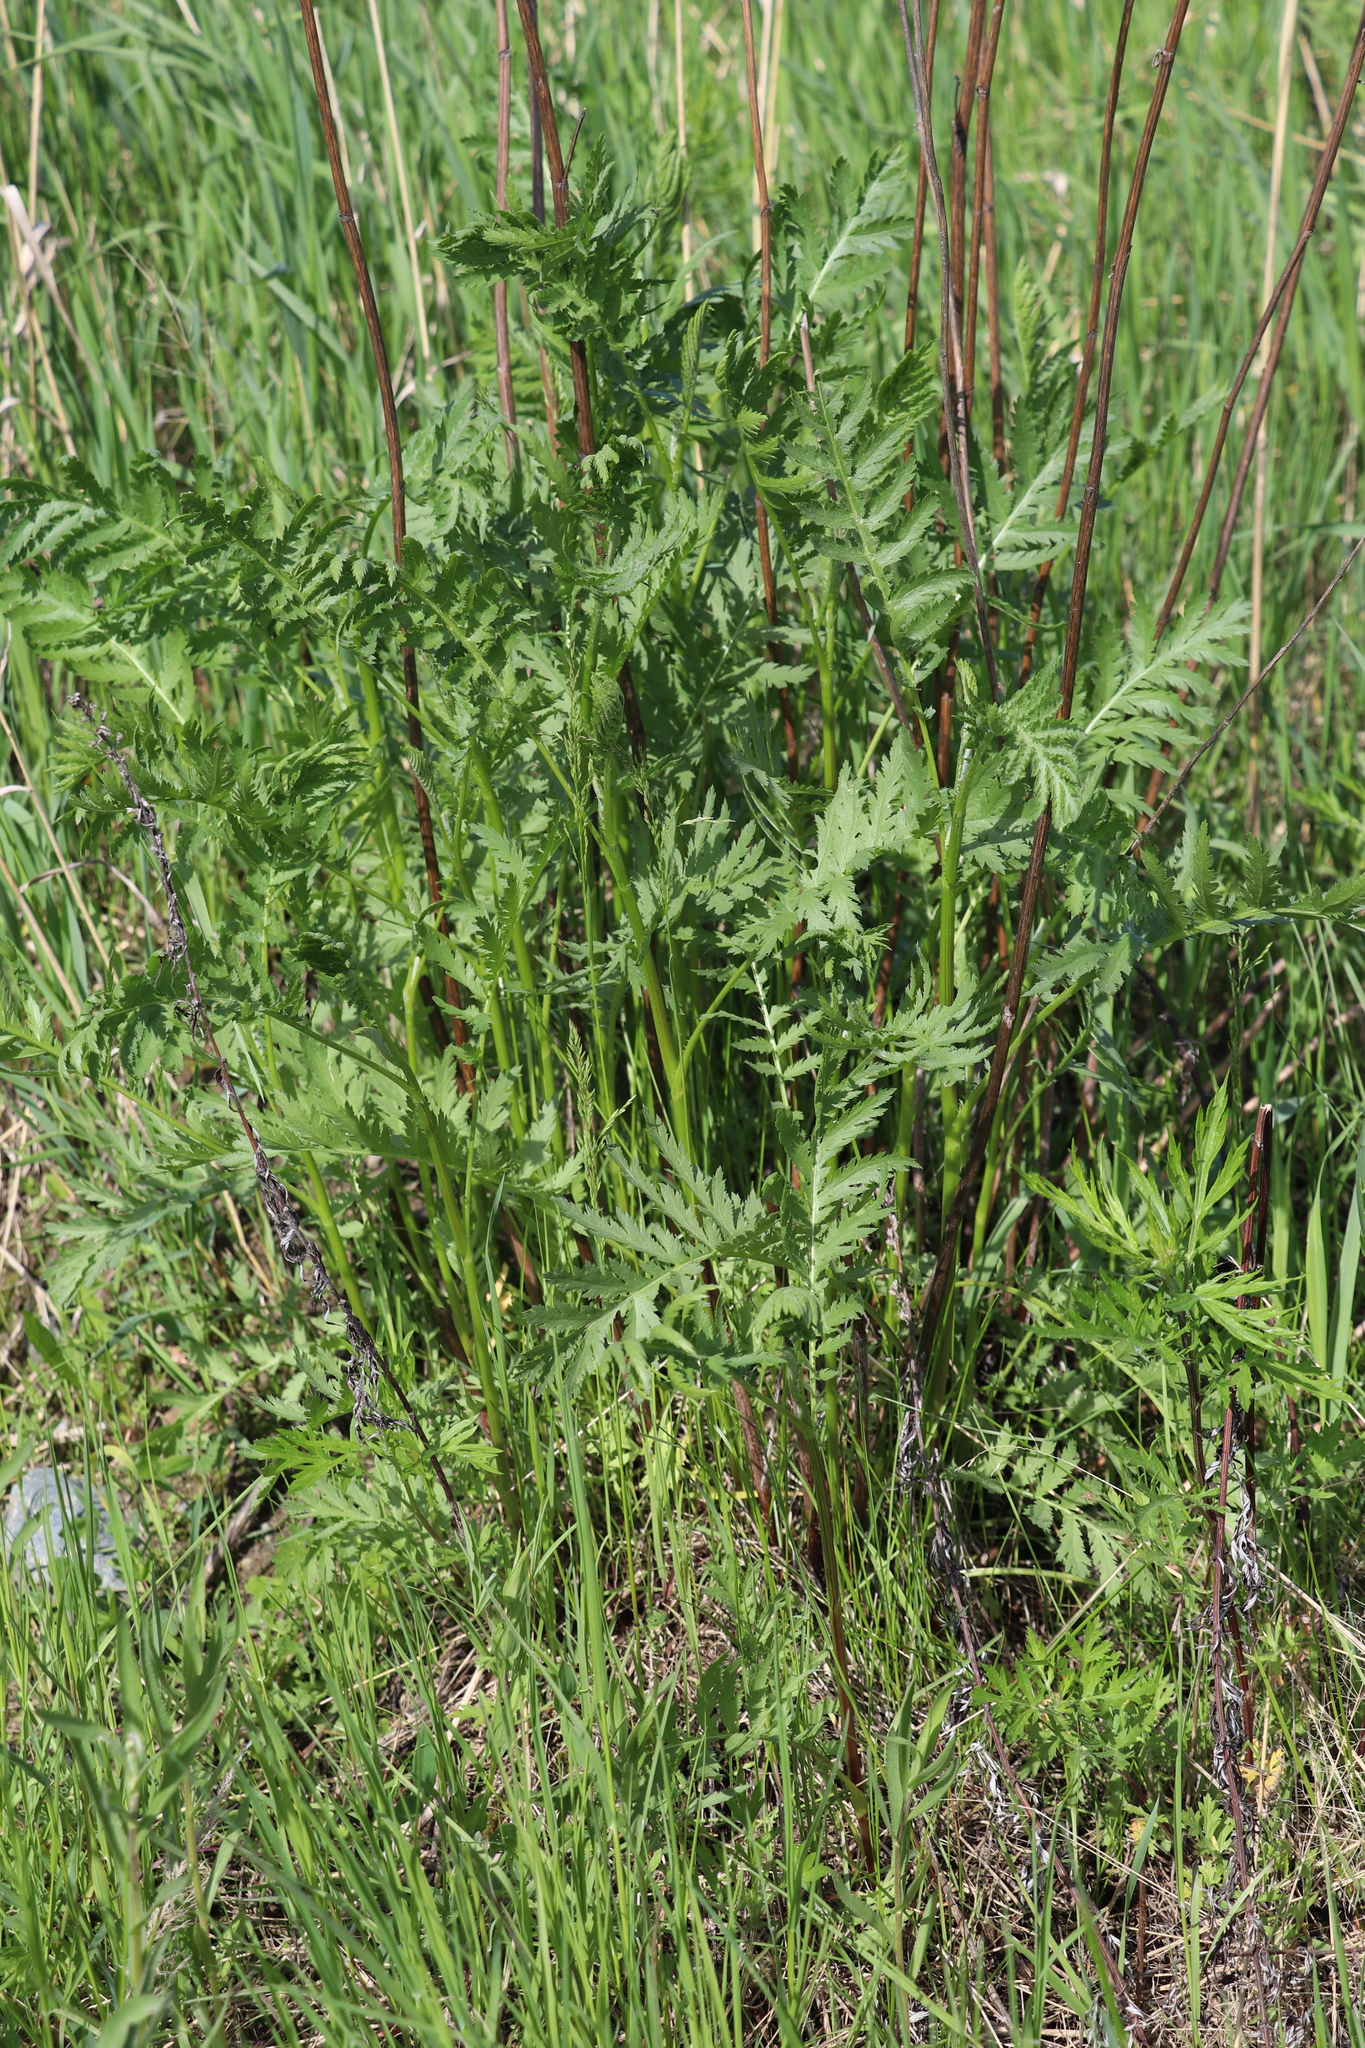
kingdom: Plantae
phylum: Tracheophyta
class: Magnoliopsida
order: Asterales
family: Asteraceae
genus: Tanacetum
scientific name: Tanacetum vulgare
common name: Common tansy
